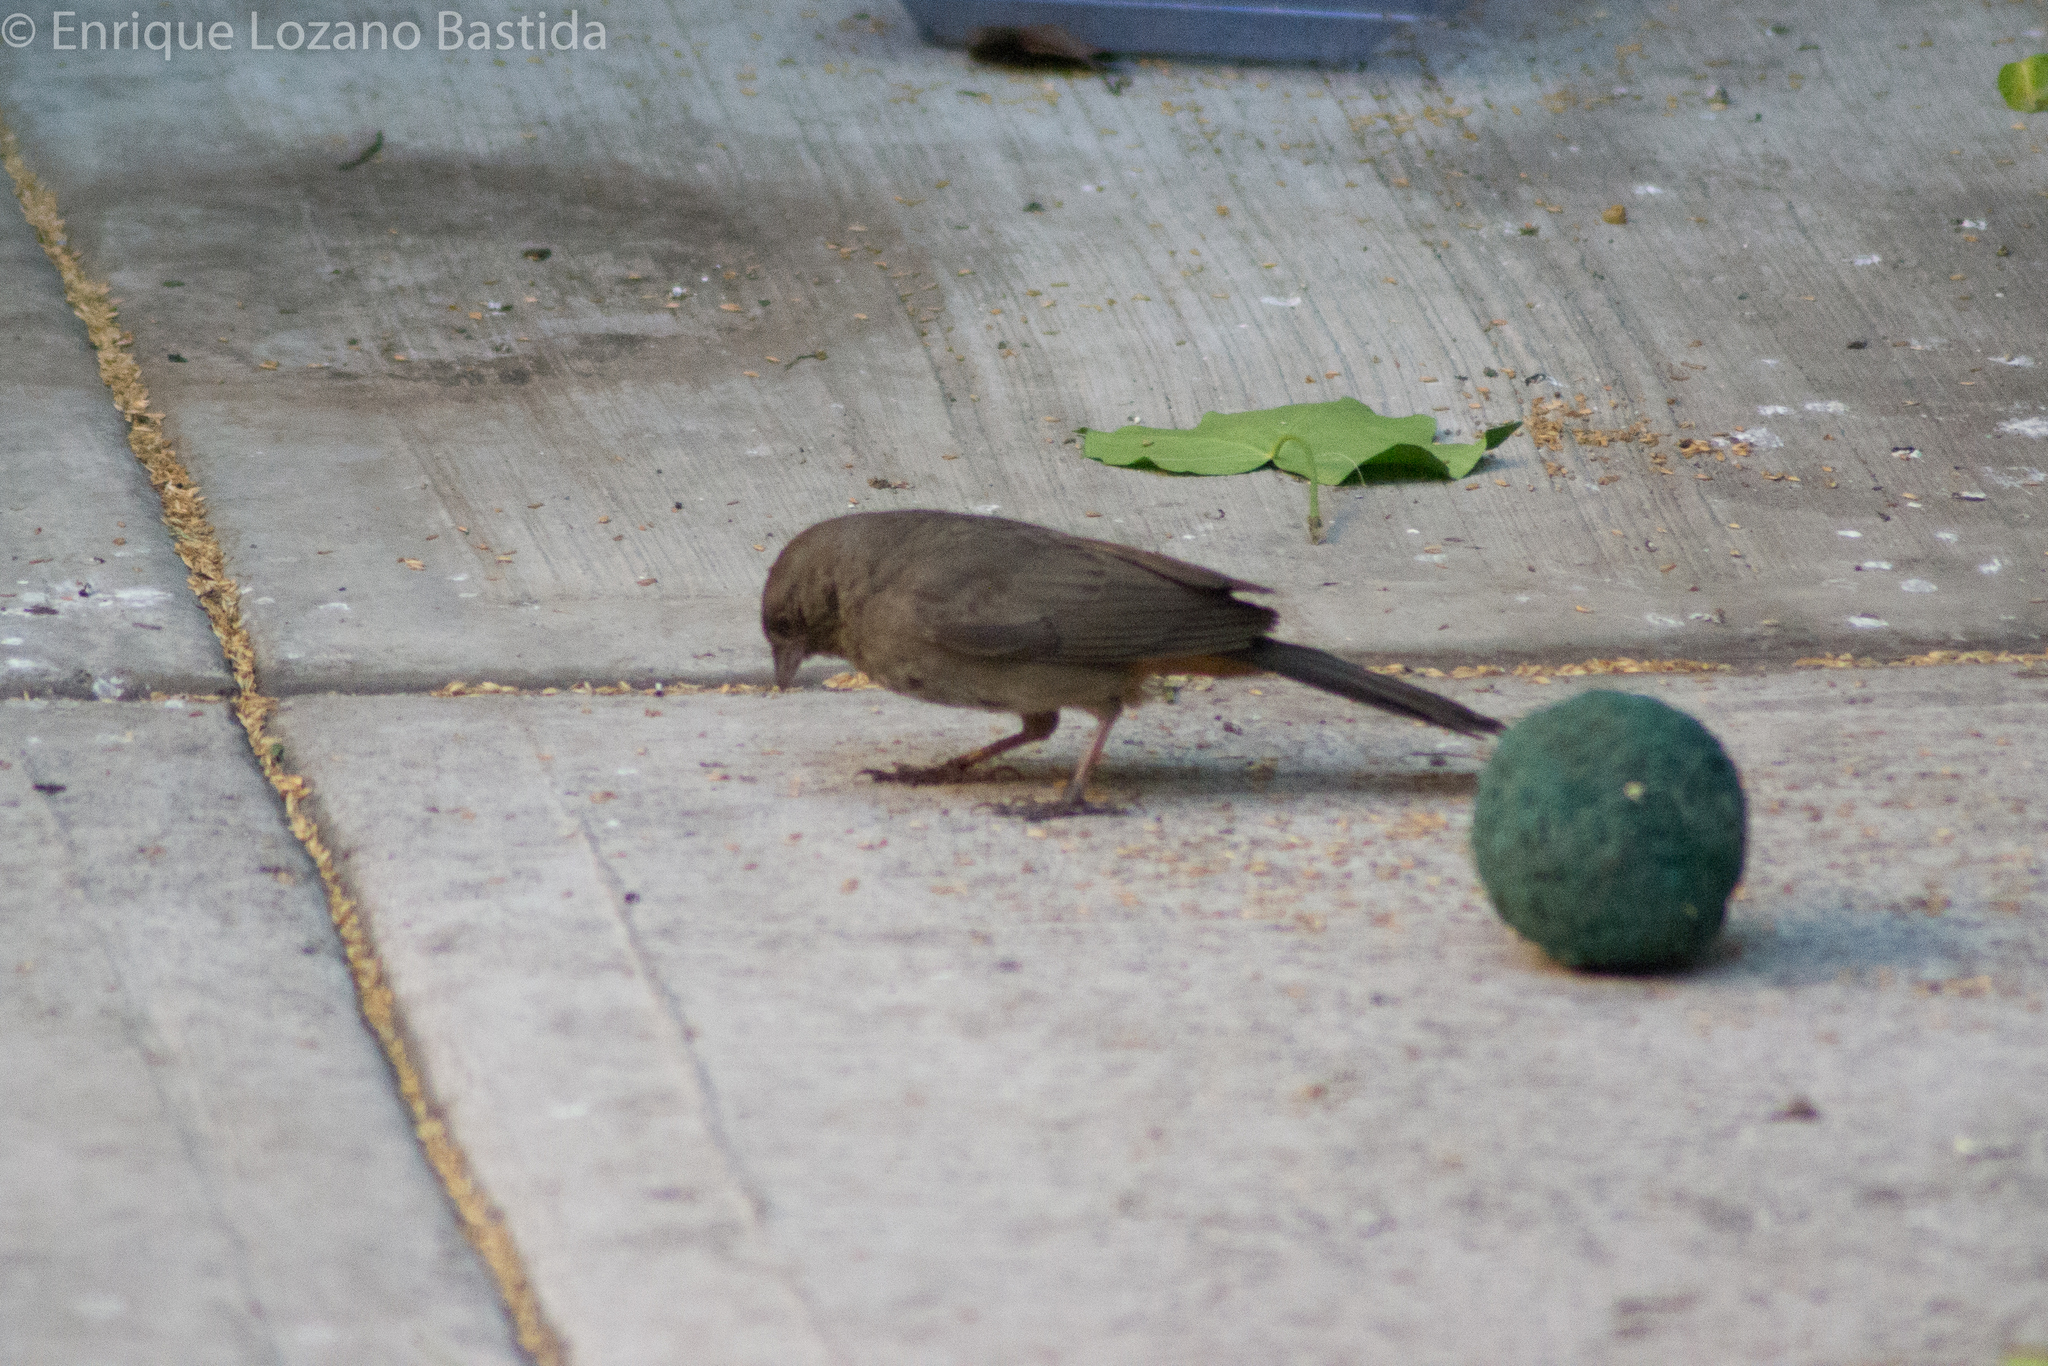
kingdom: Animalia
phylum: Chordata
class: Aves
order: Passeriformes
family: Passerellidae
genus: Melozone
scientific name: Melozone fusca
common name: Canyon towhee
